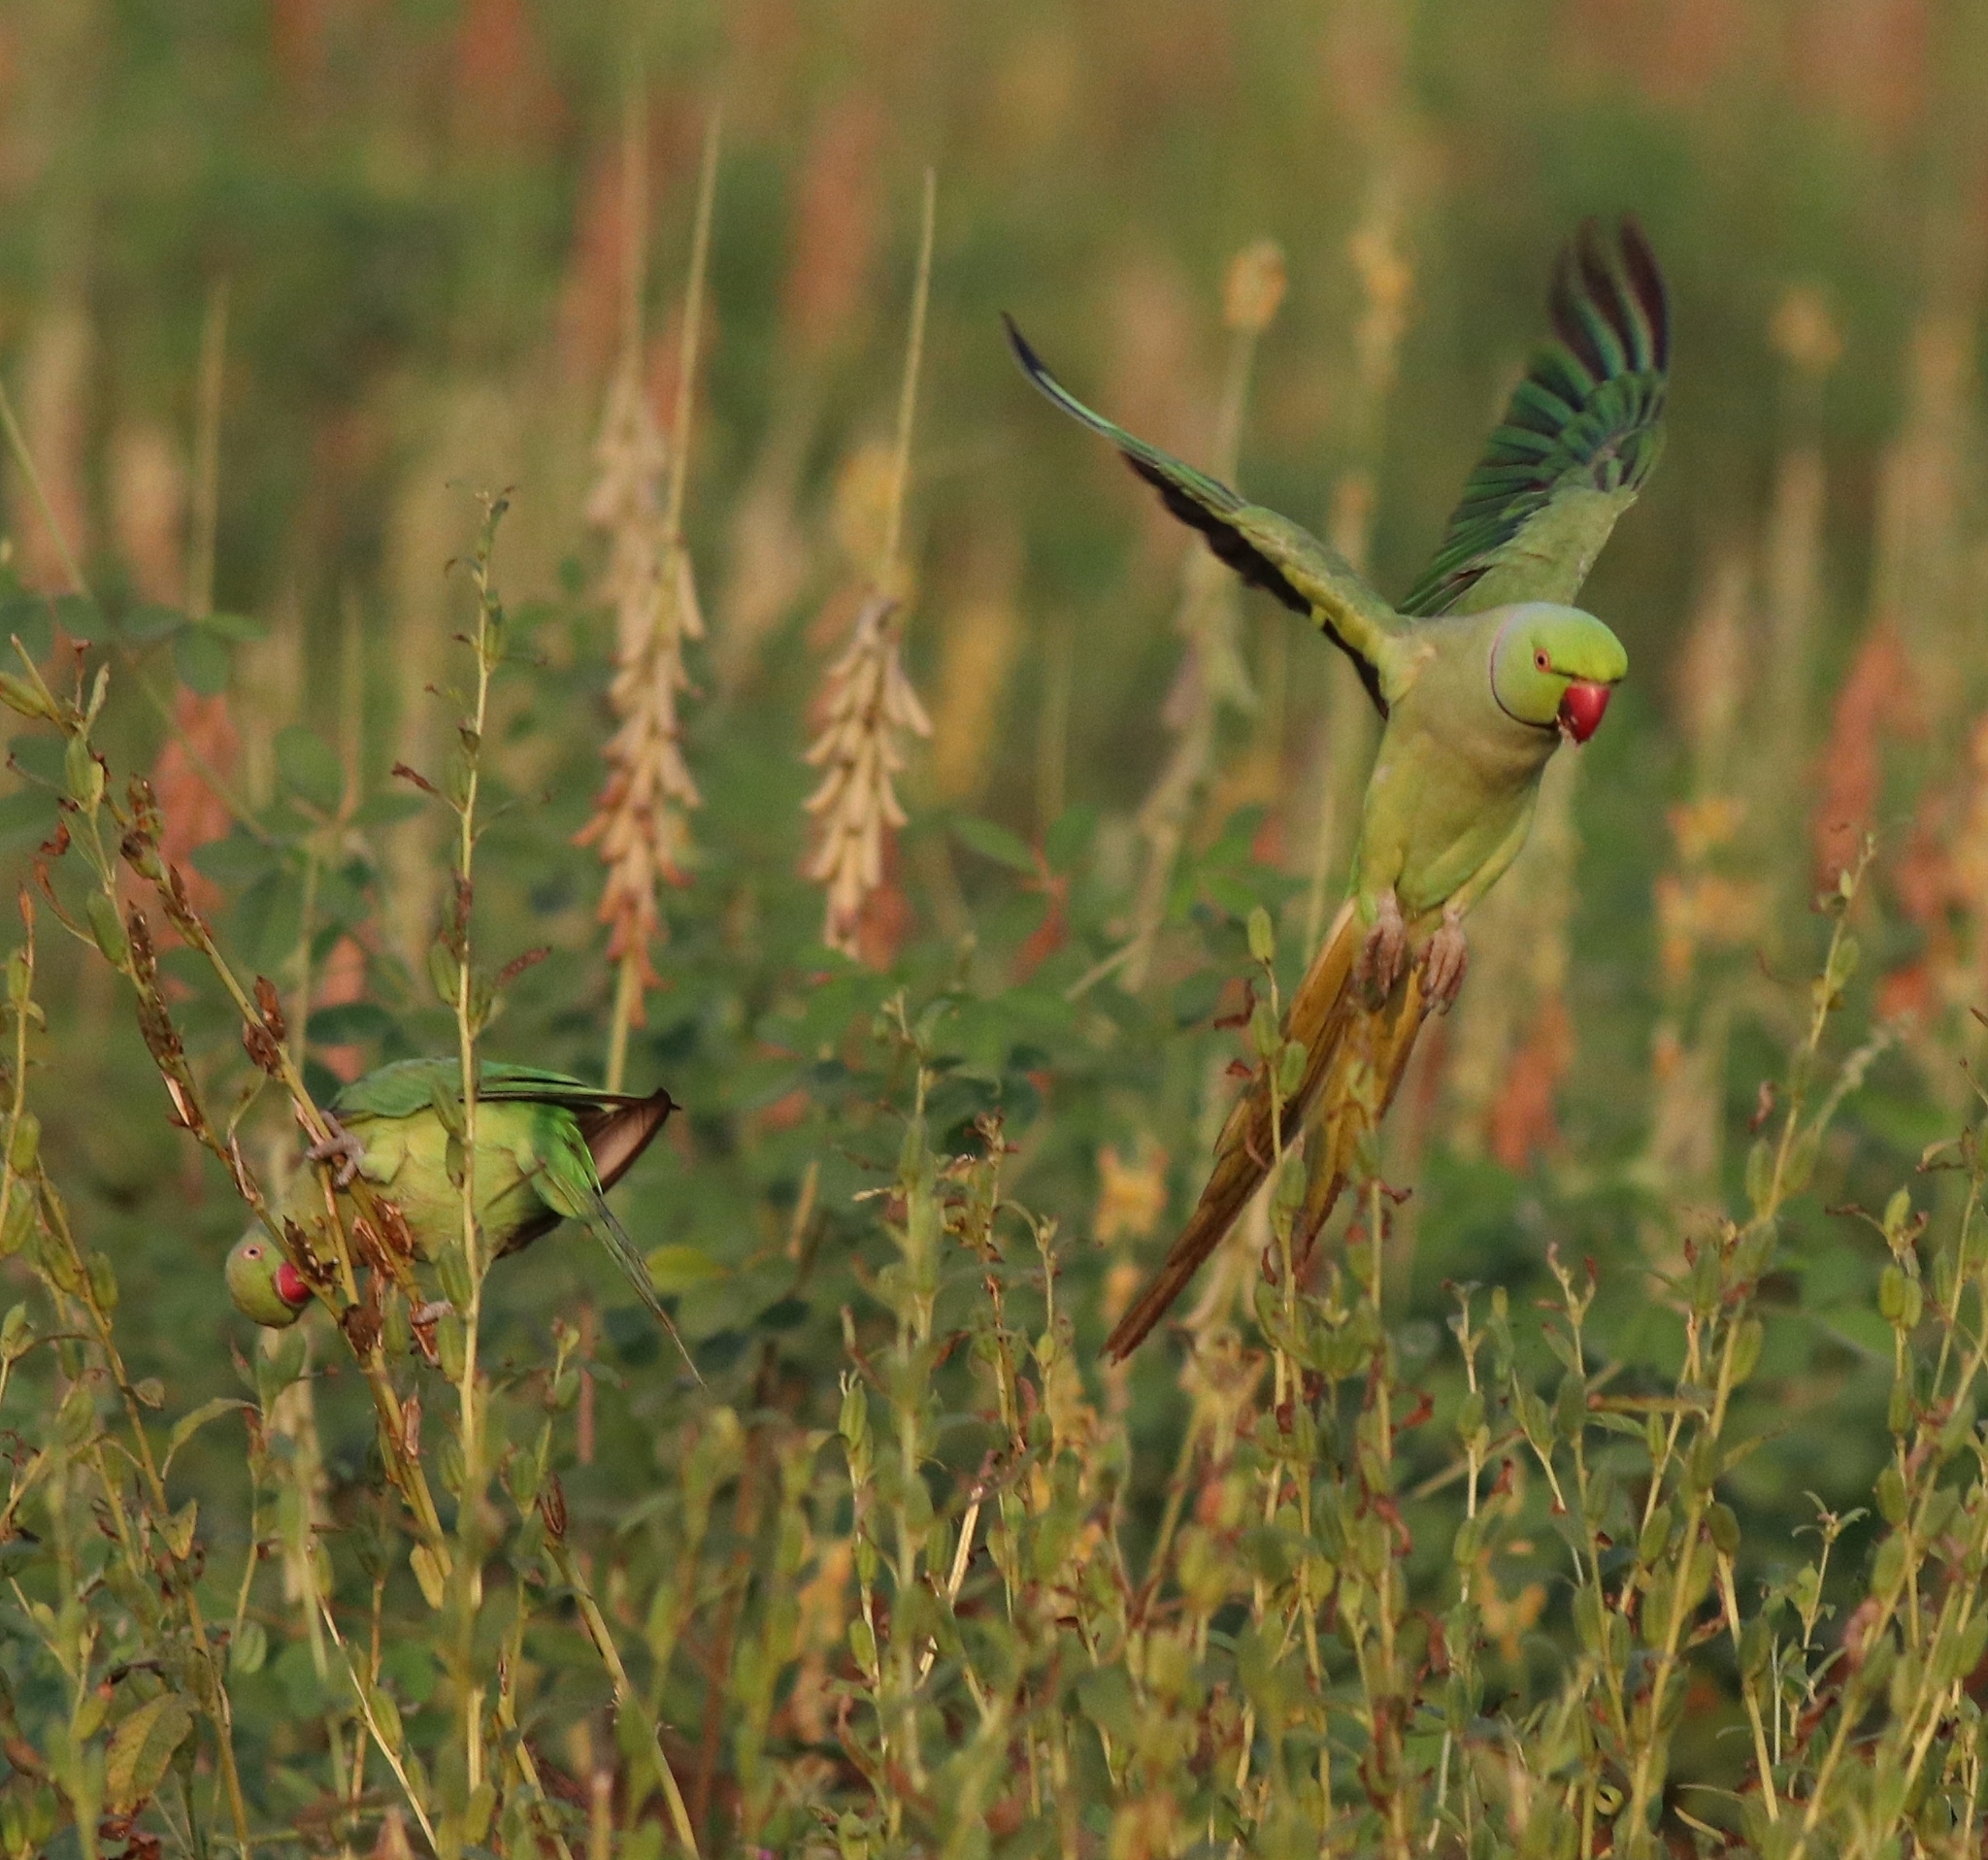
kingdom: Animalia
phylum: Chordata
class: Aves
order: Psittaciformes
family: Psittacidae
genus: Psittacula
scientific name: Psittacula krameri
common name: Rose-ringed parakeet
